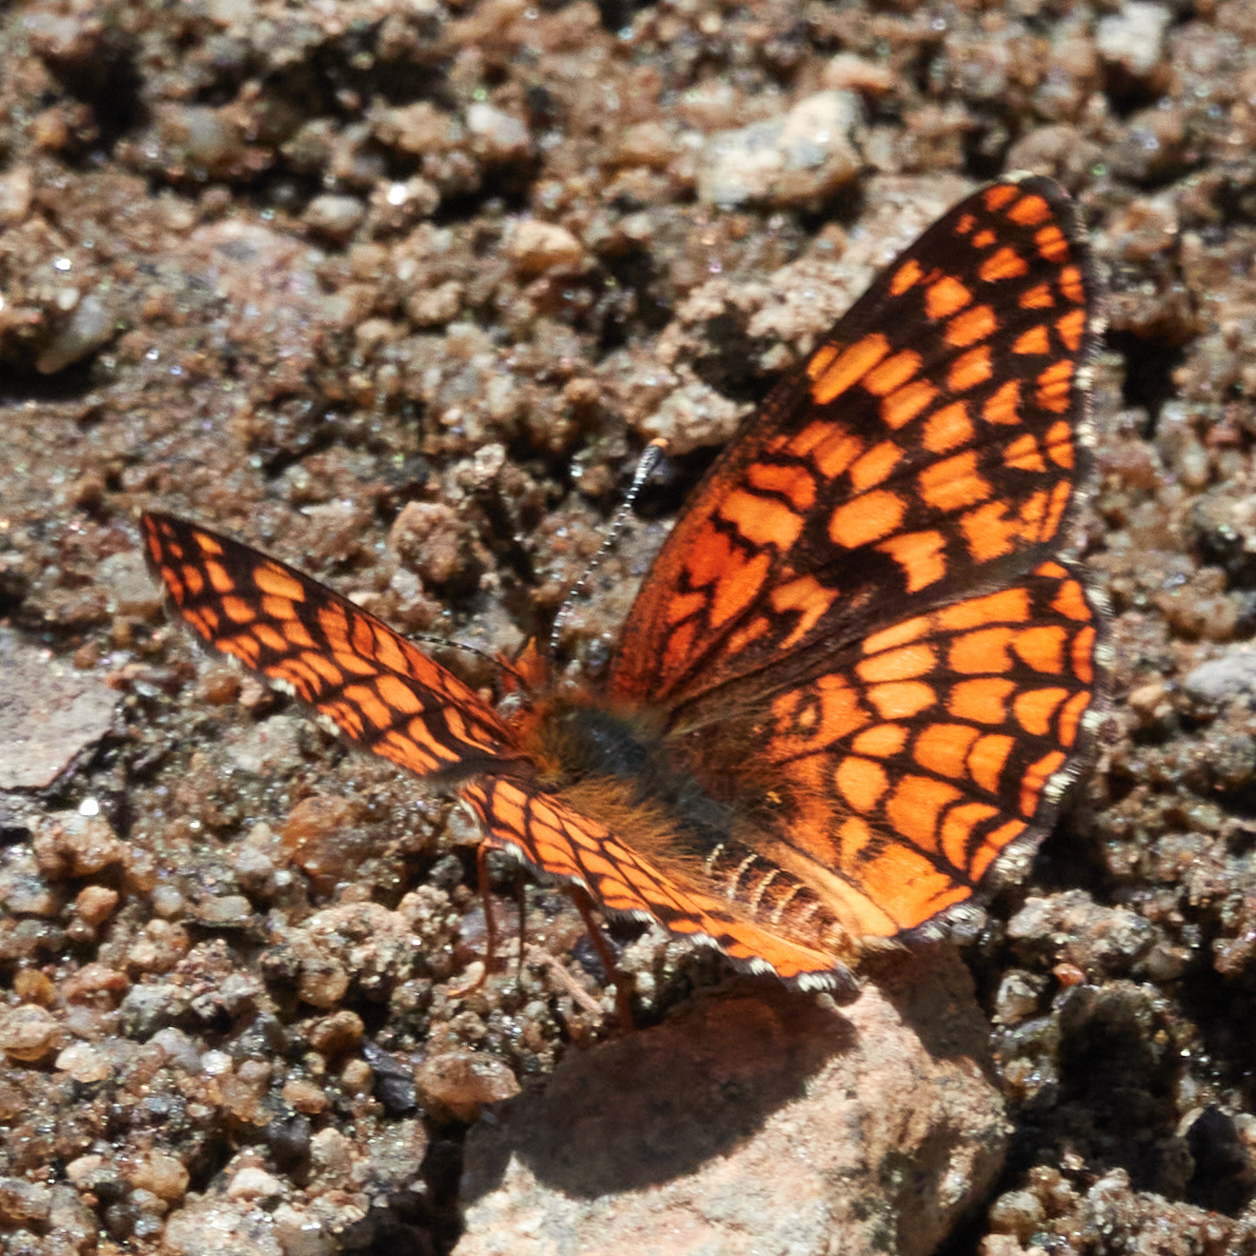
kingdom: Animalia
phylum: Arthropoda
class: Insecta
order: Lepidoptera
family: Nymphalidae
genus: Chlosyne
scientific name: Chlosyne palla
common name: Northern checkerspot
